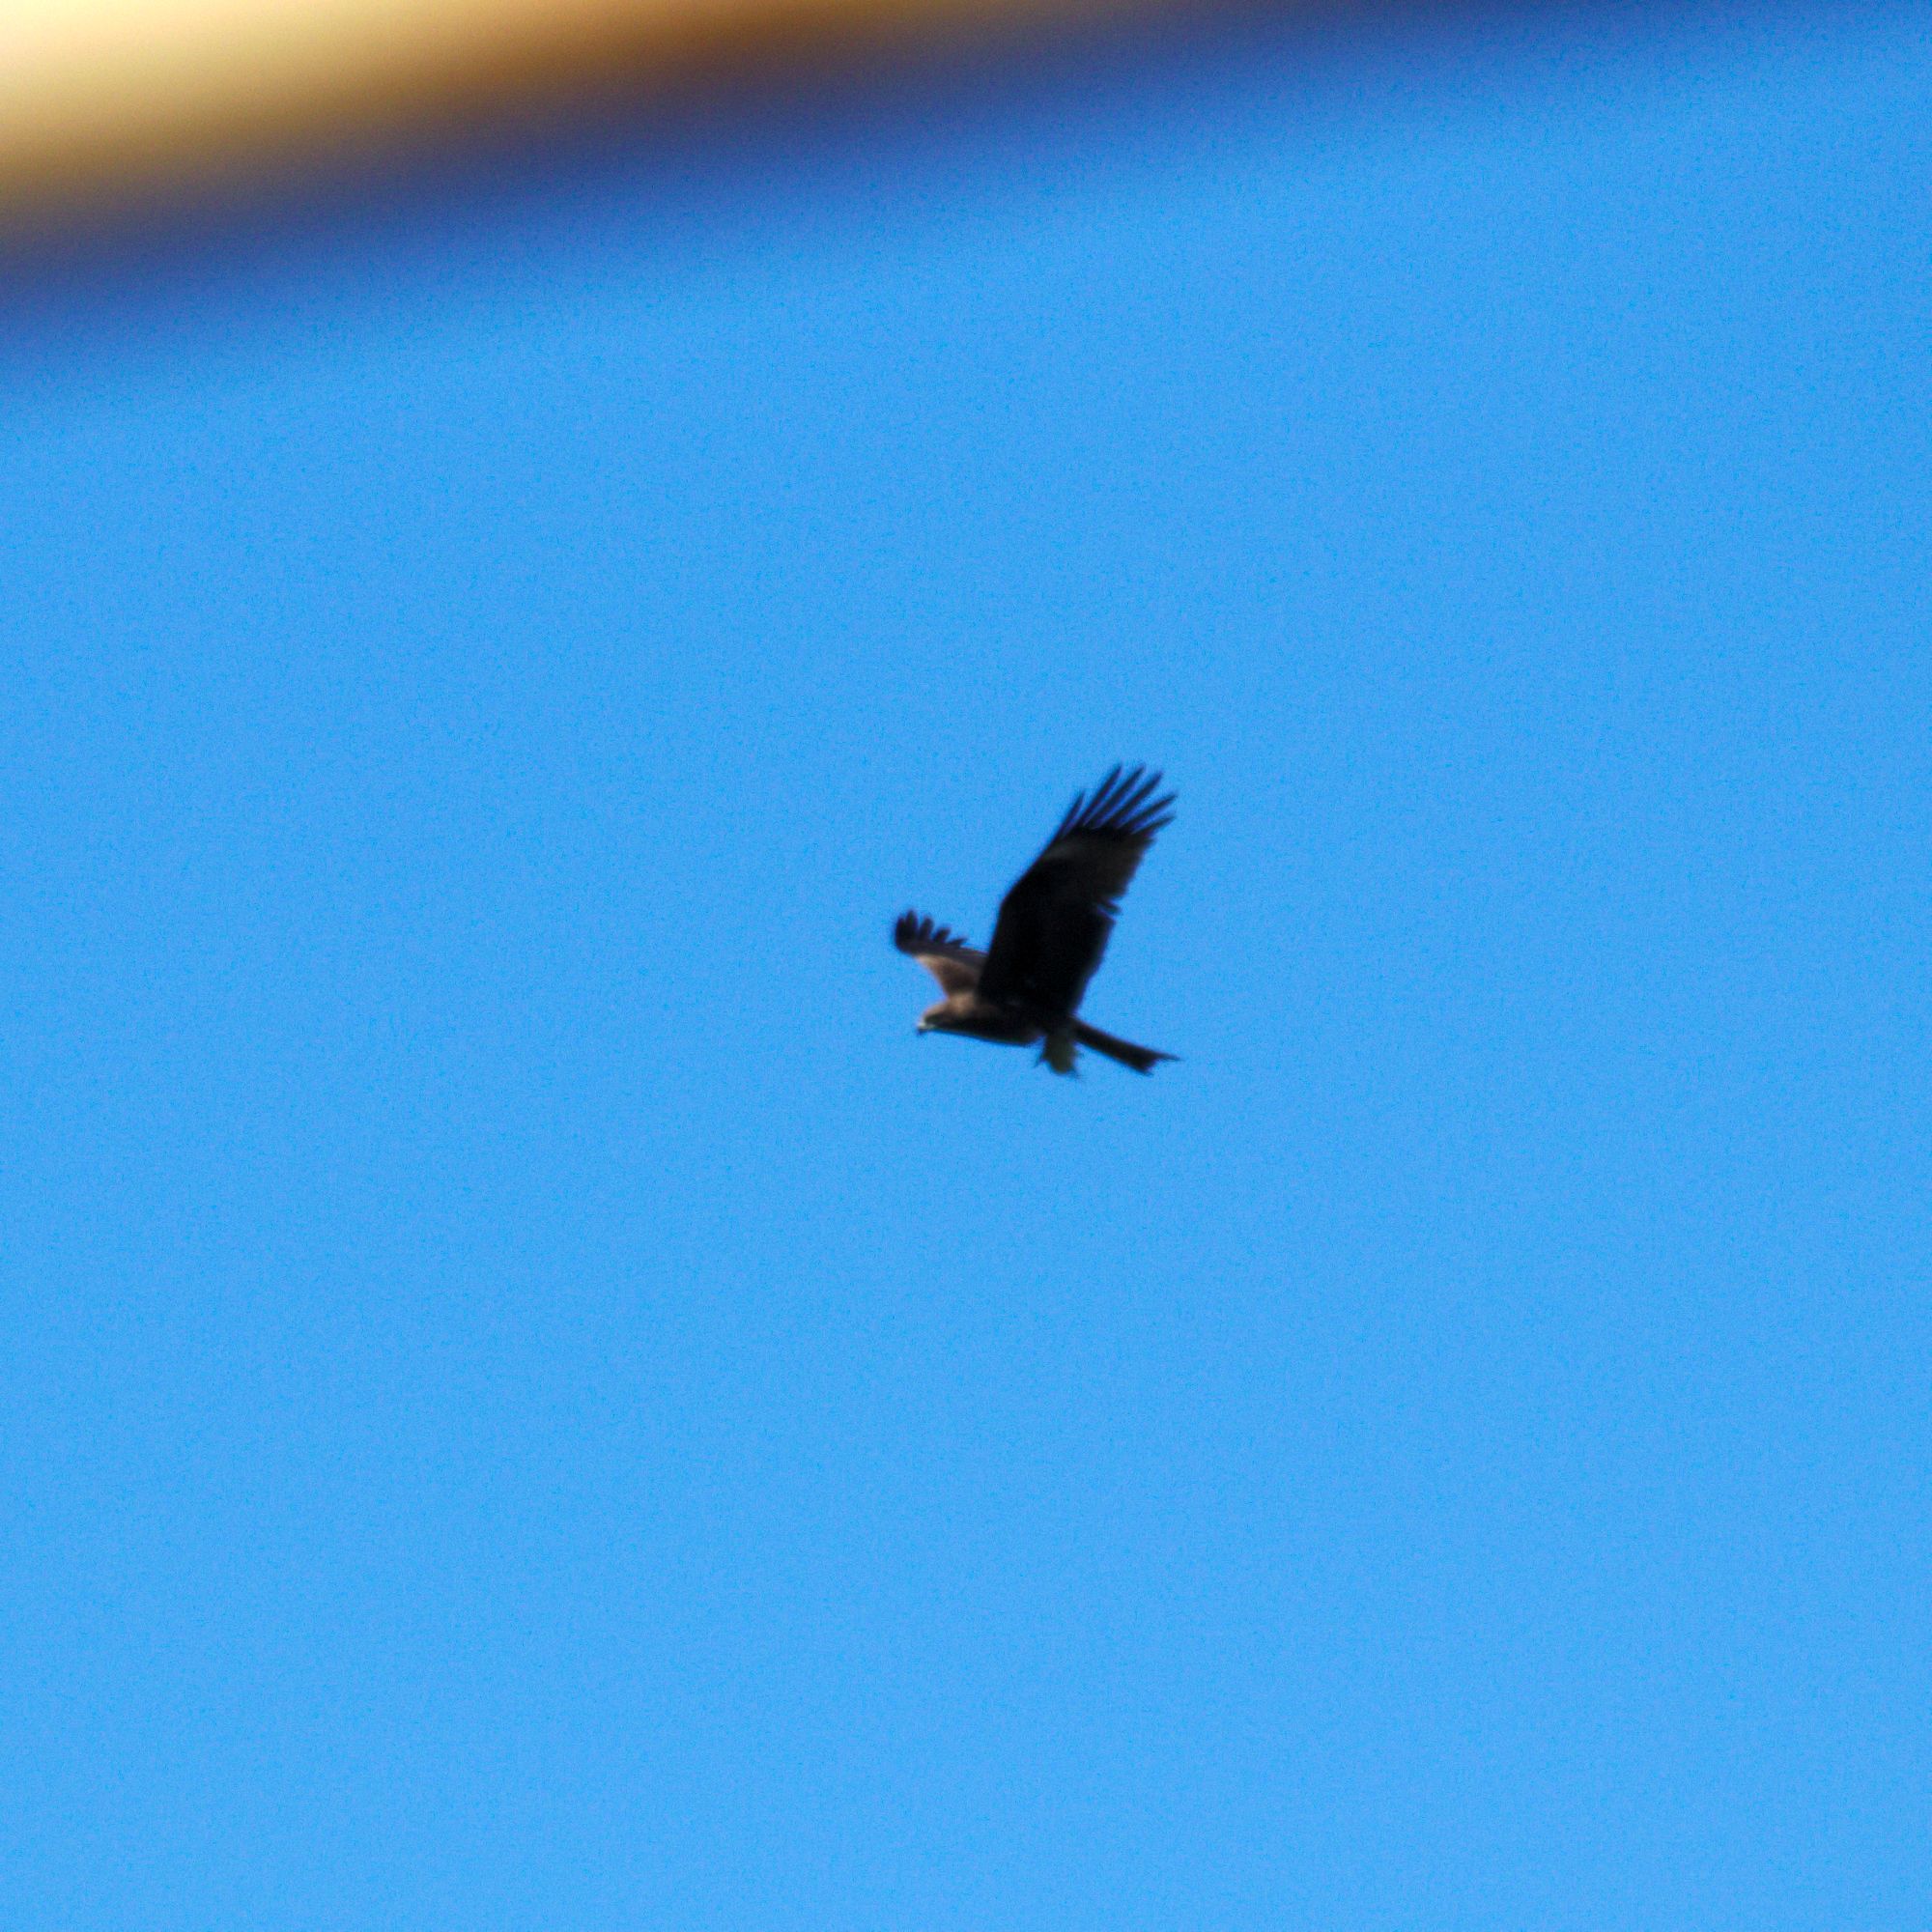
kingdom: Animalia
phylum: Chordata
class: Aves
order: Accipitriformes
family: Accipitridae
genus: Milvus
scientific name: Milvus migrans
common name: Black kite
